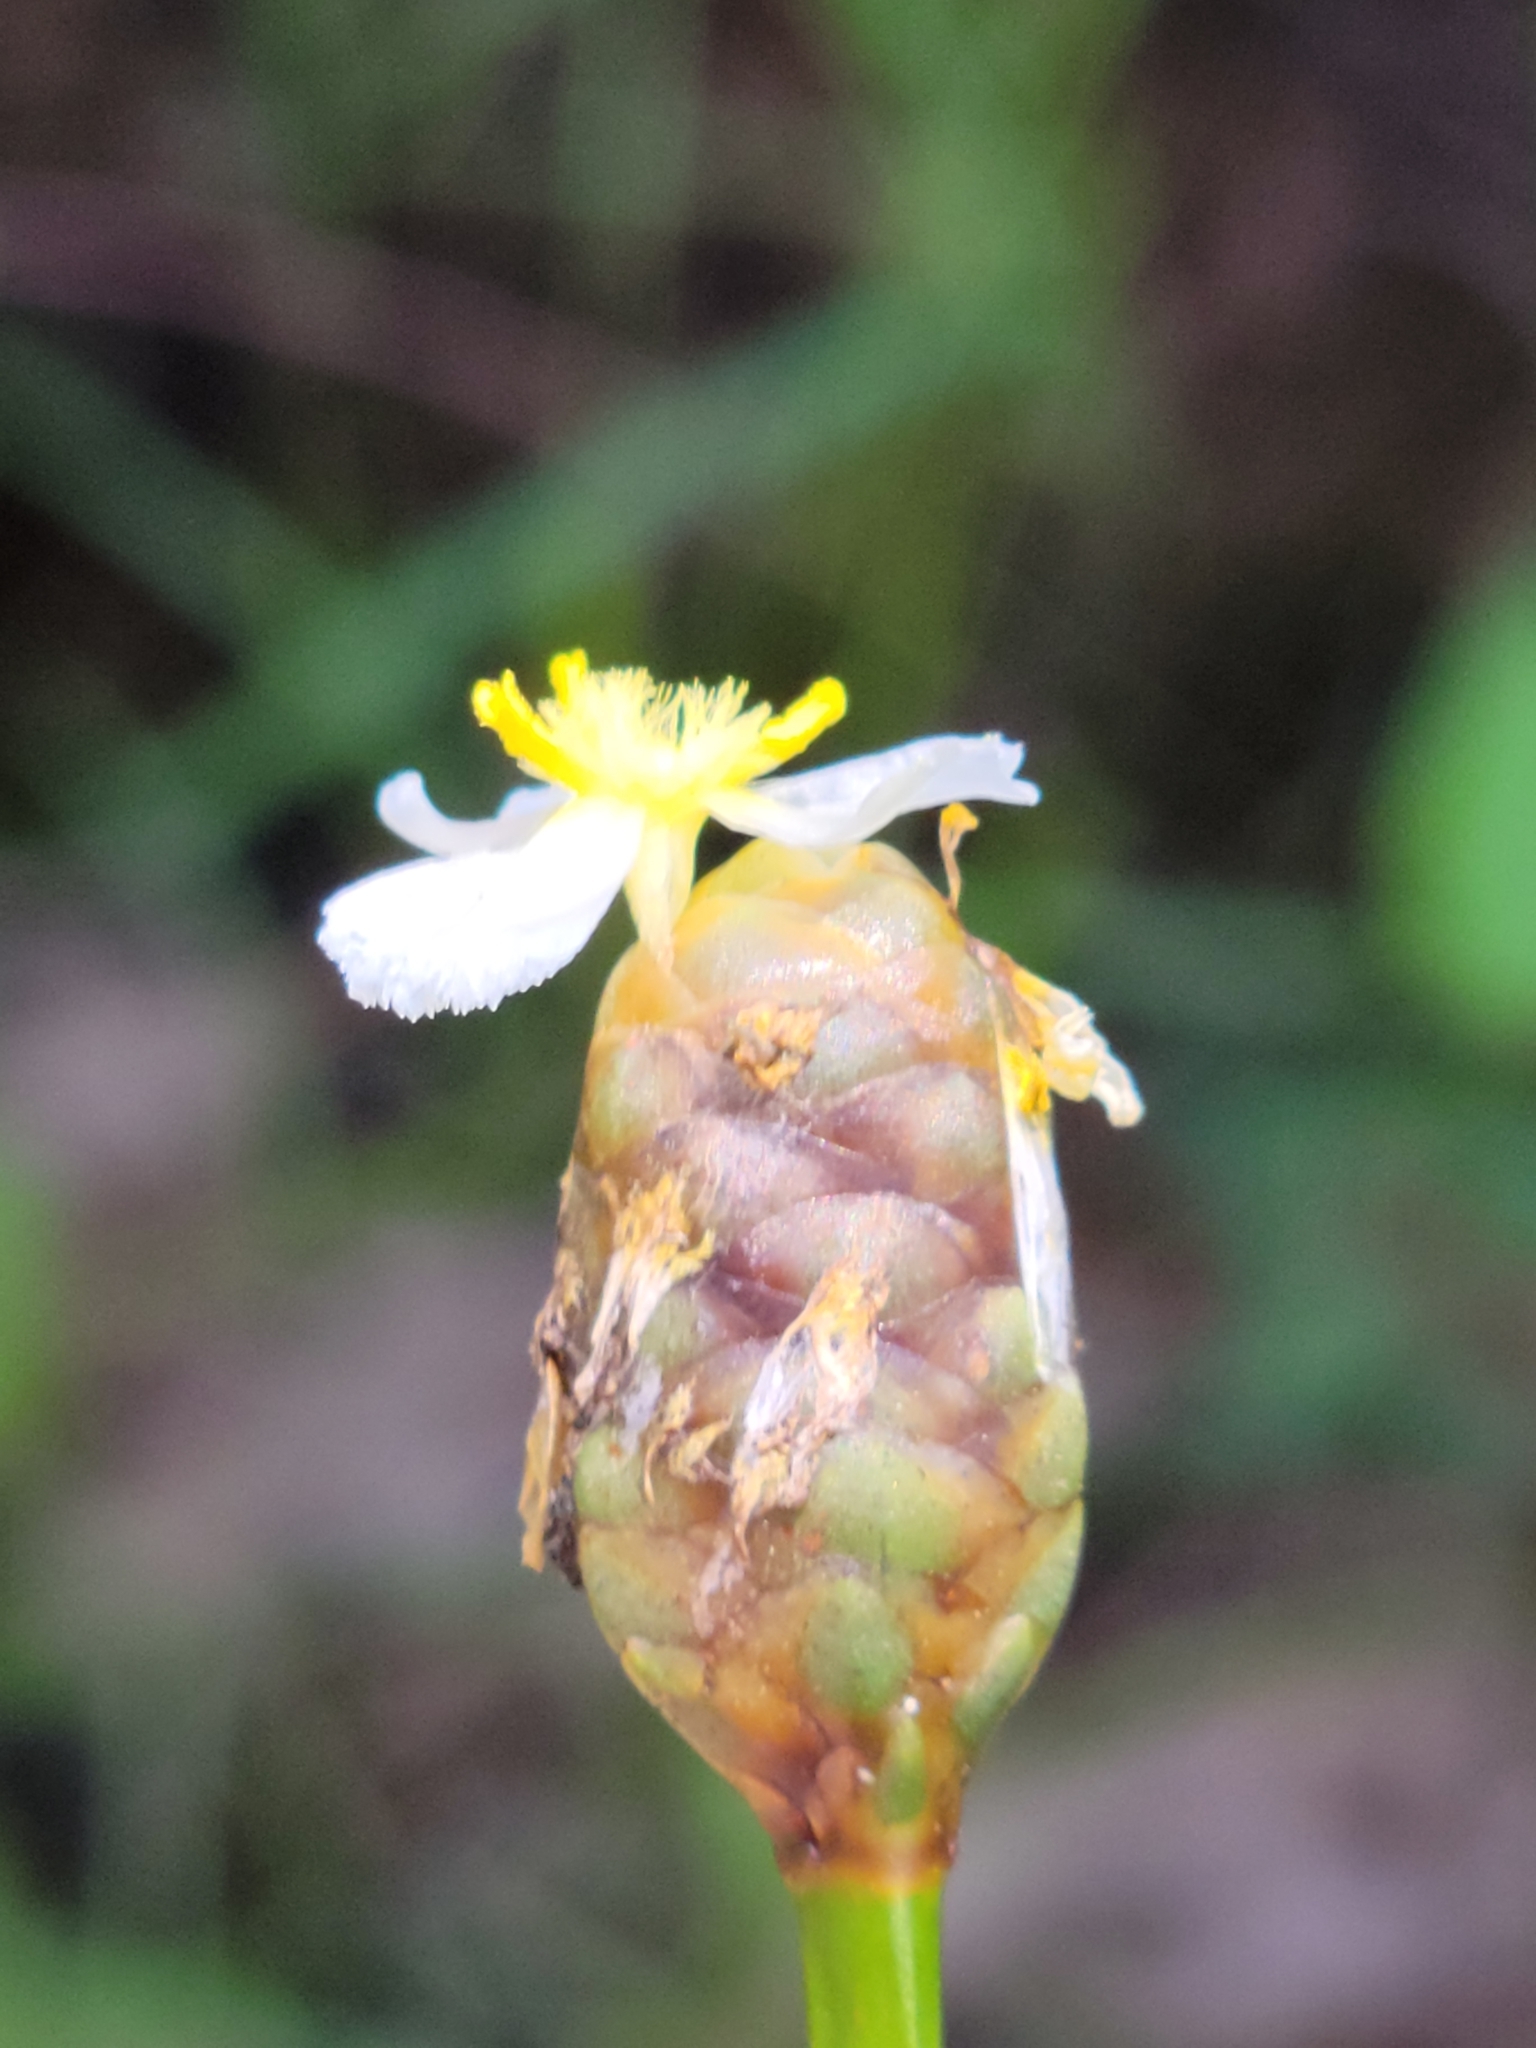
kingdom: Plantae
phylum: Tracheophyta
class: Liliopsida
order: Poales
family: Xyridaceae
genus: Xyris
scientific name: Xyris platylepis
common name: Tall yelloweyed grass
